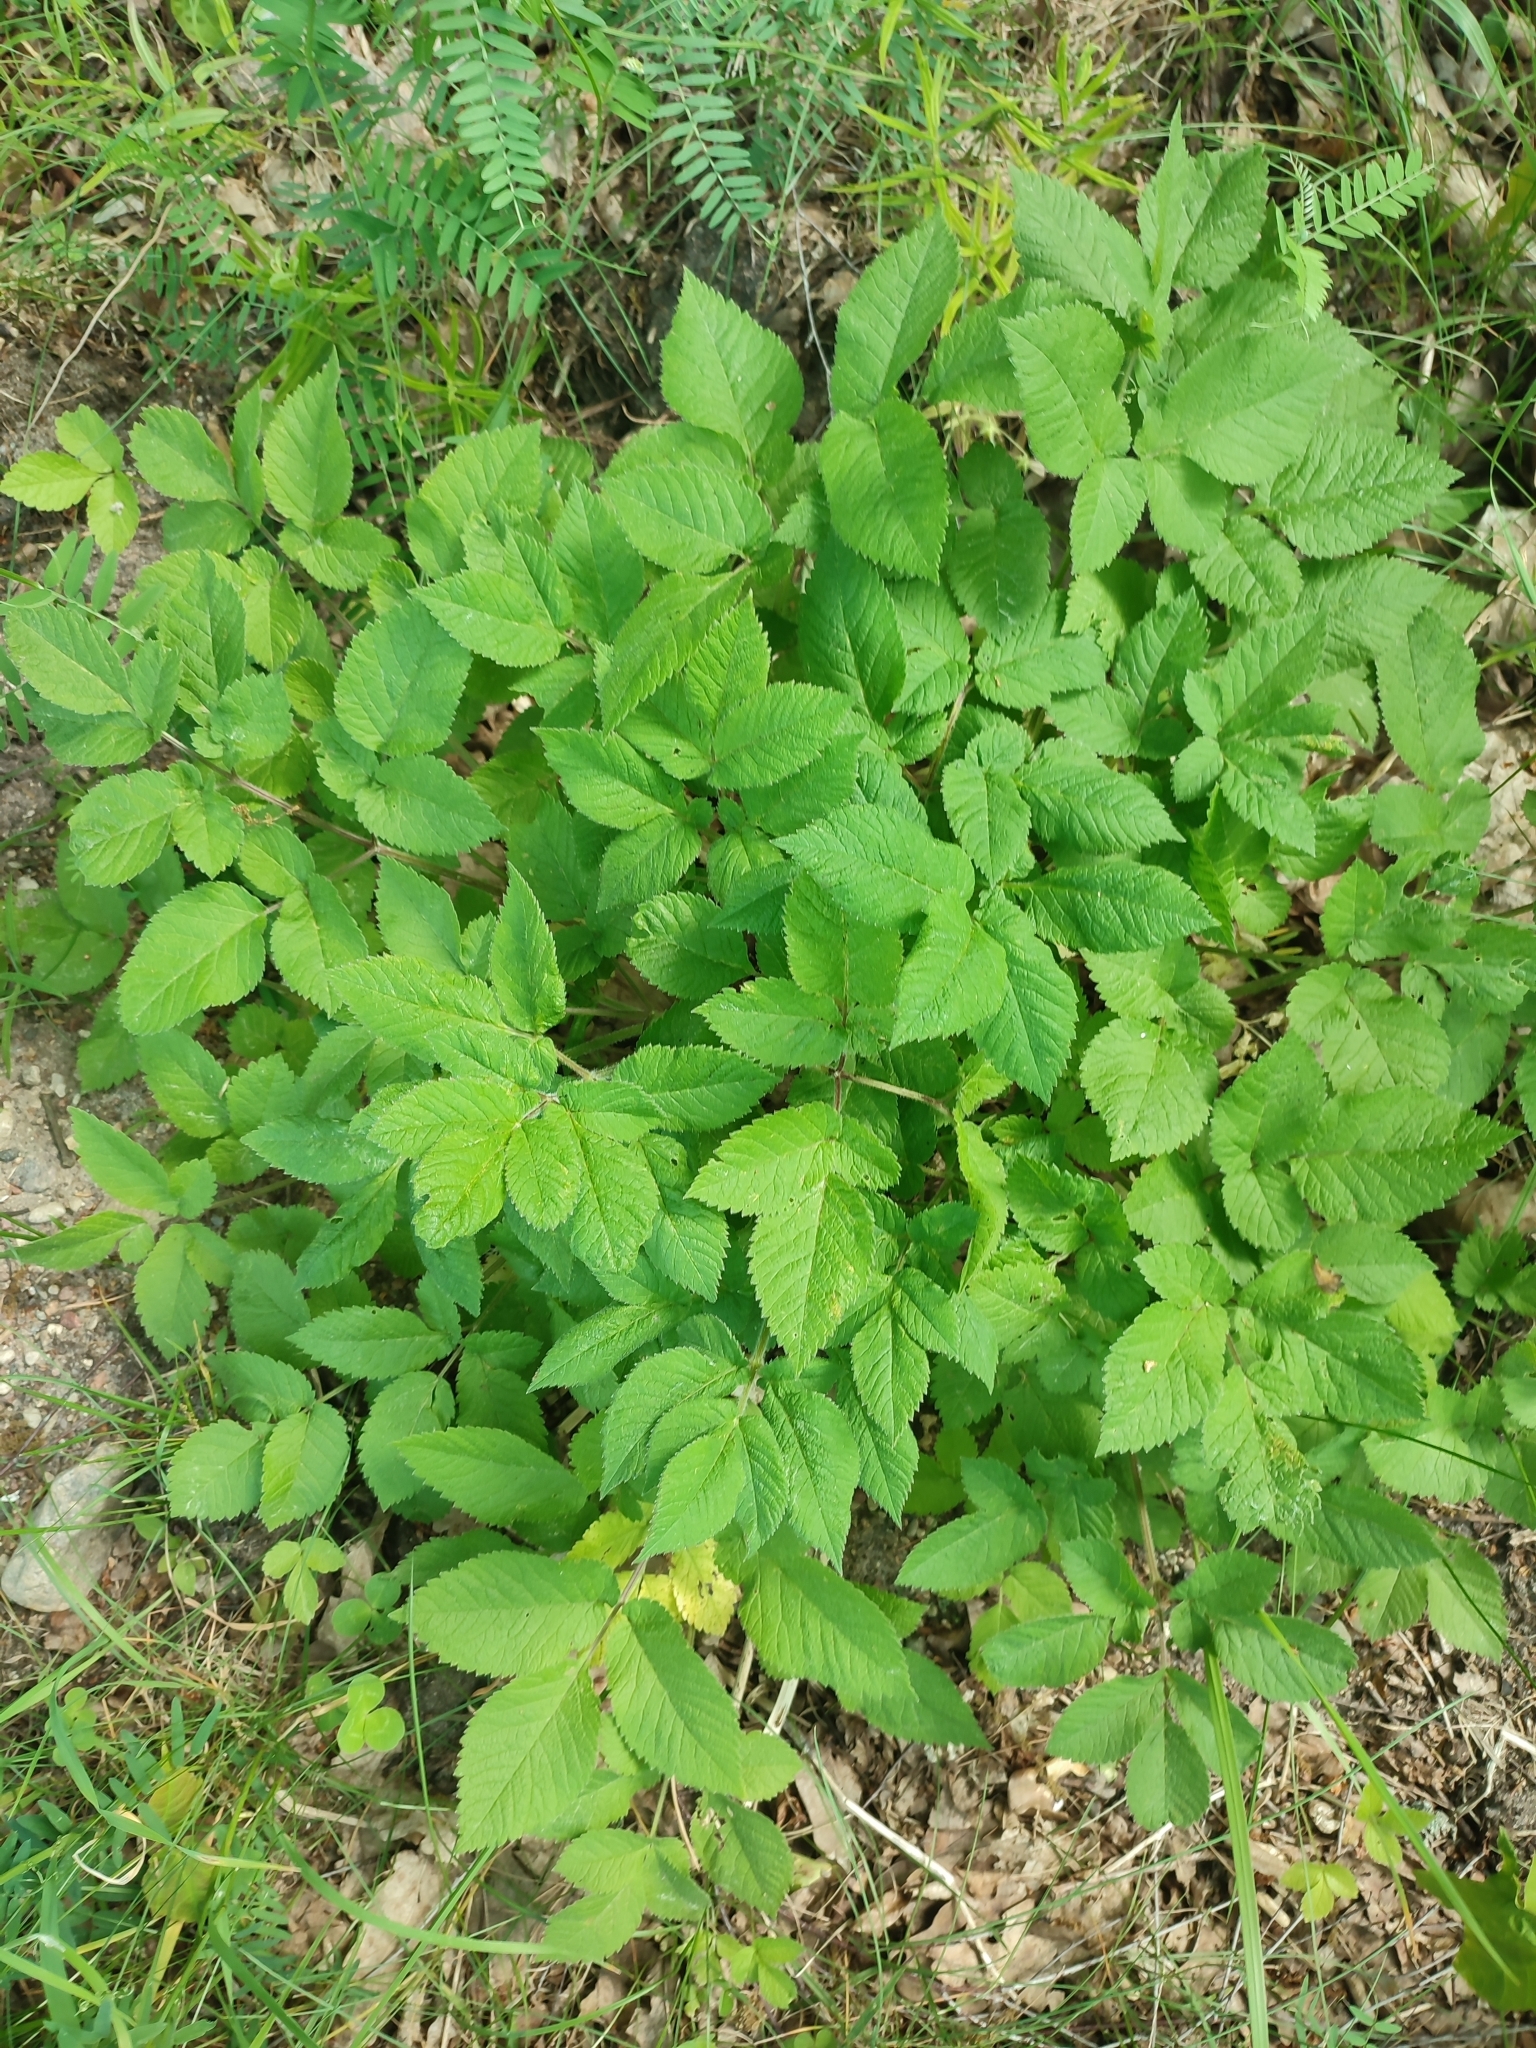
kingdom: Plantae
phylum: Tracheophyta
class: Magnoliopsida
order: Apiales
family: Apiaceae
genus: Chaerophyllum
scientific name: Chaerophyllum aromaticum
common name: Broadleaf chervil
